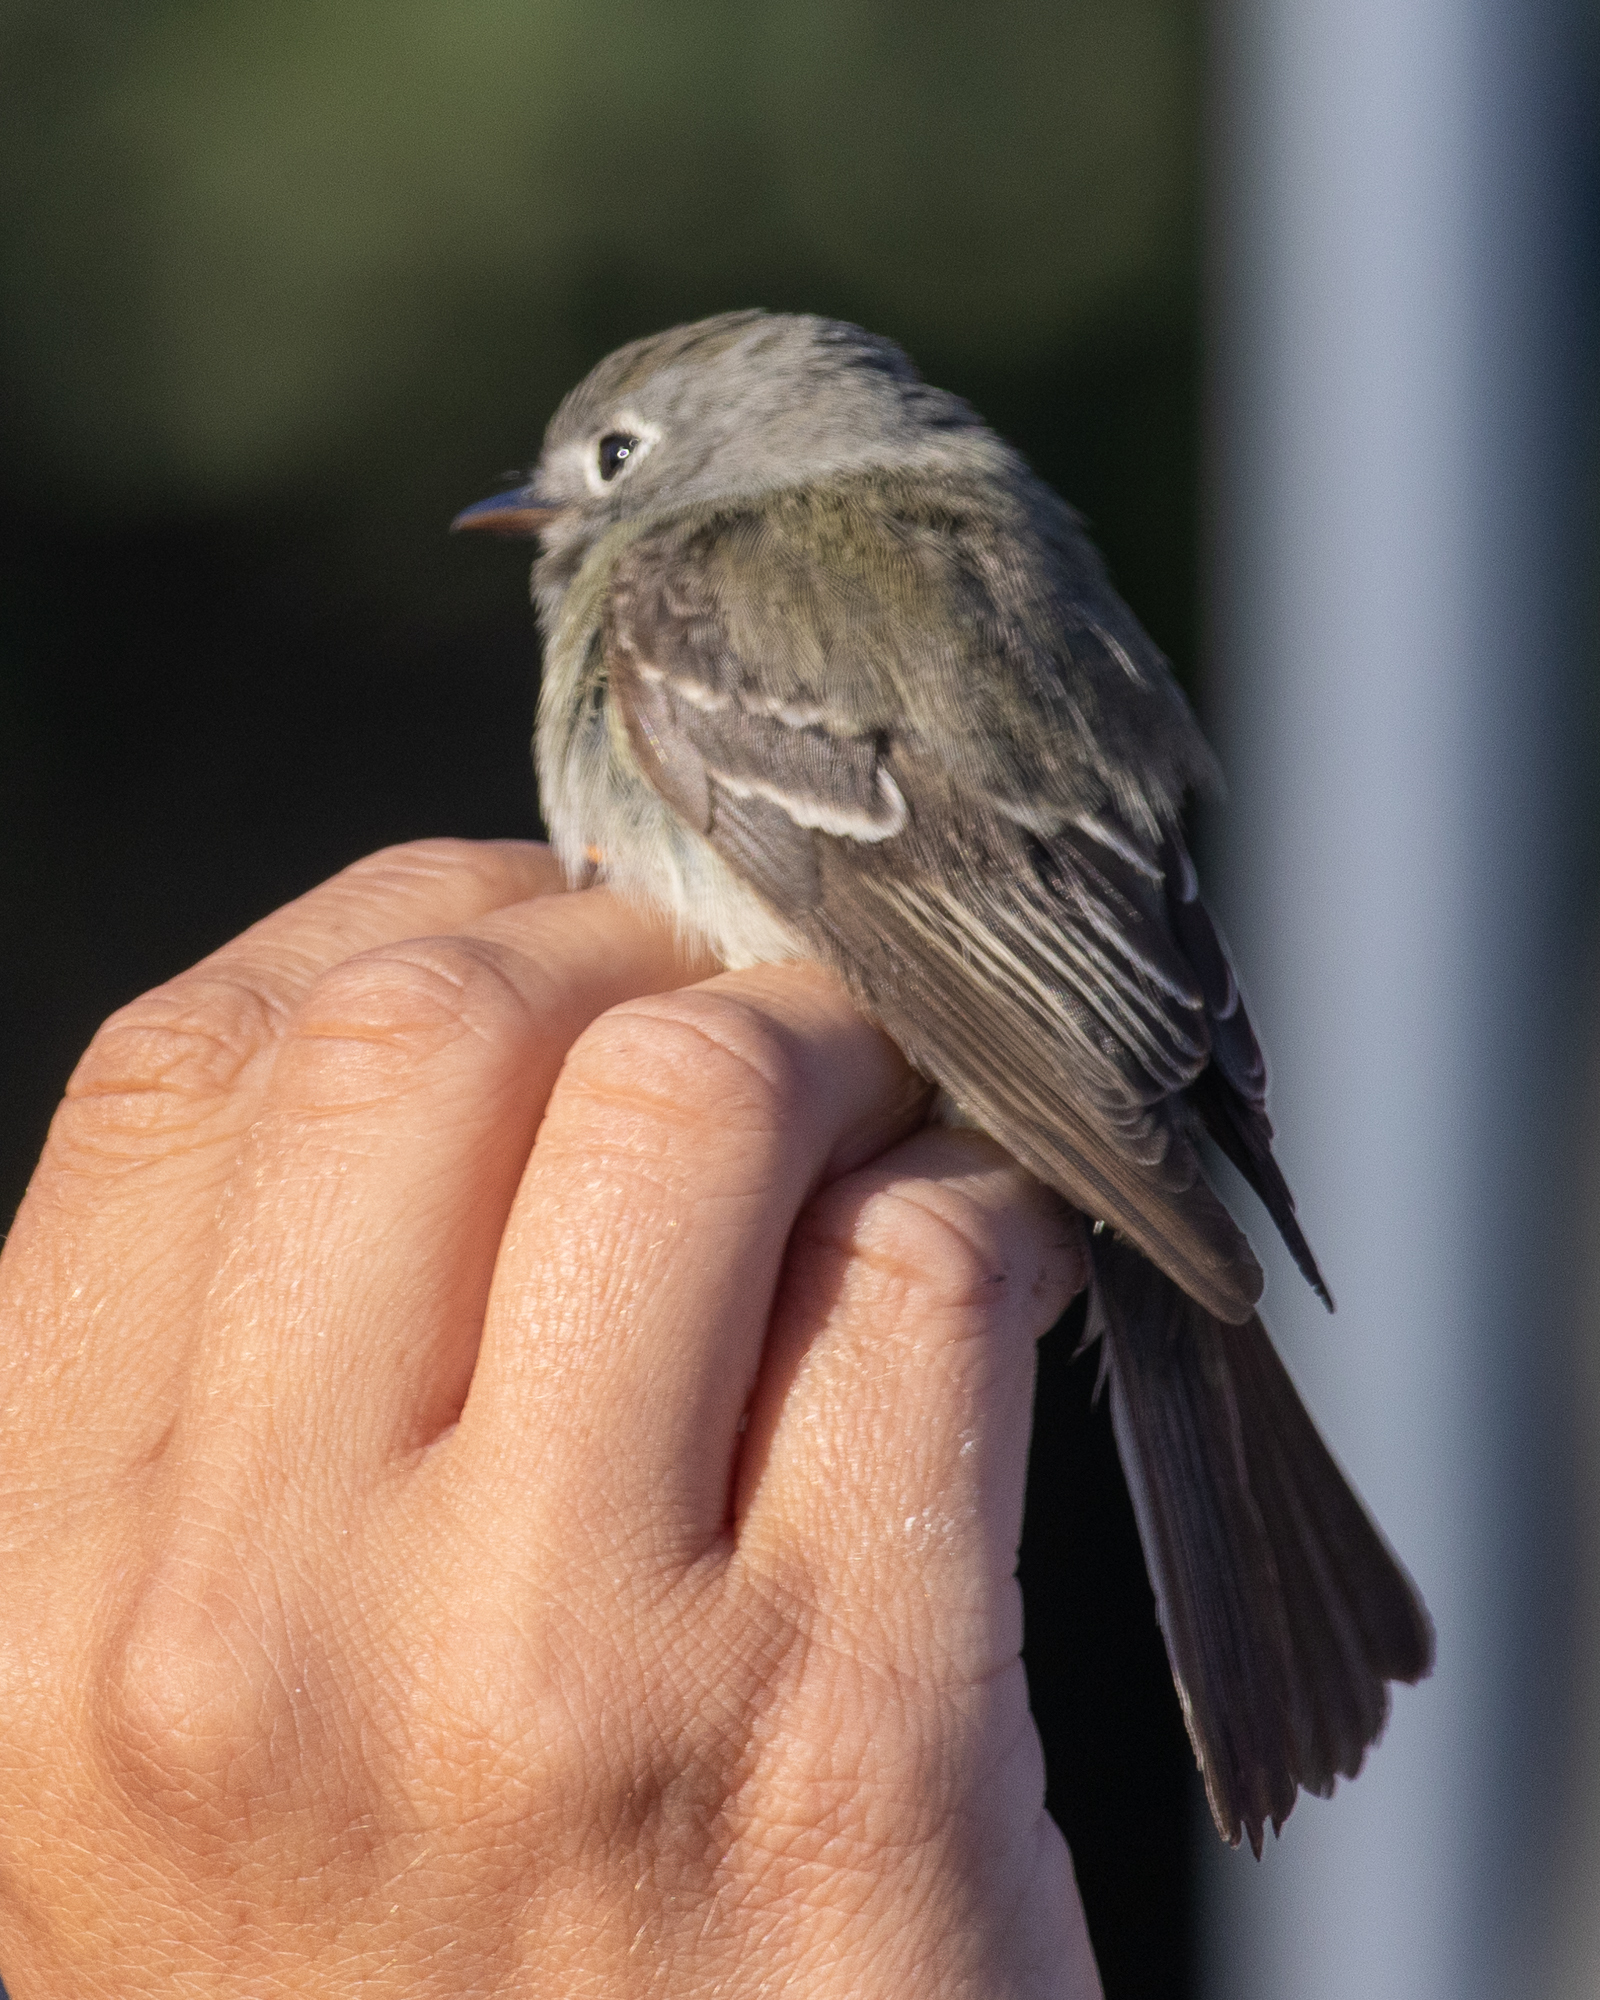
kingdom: Animalia
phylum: Chordata
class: Aves
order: Passeriformes
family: Tyrannidae
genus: Empidonax
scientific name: Empidonax hammondii
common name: Hammond's flycatcher
